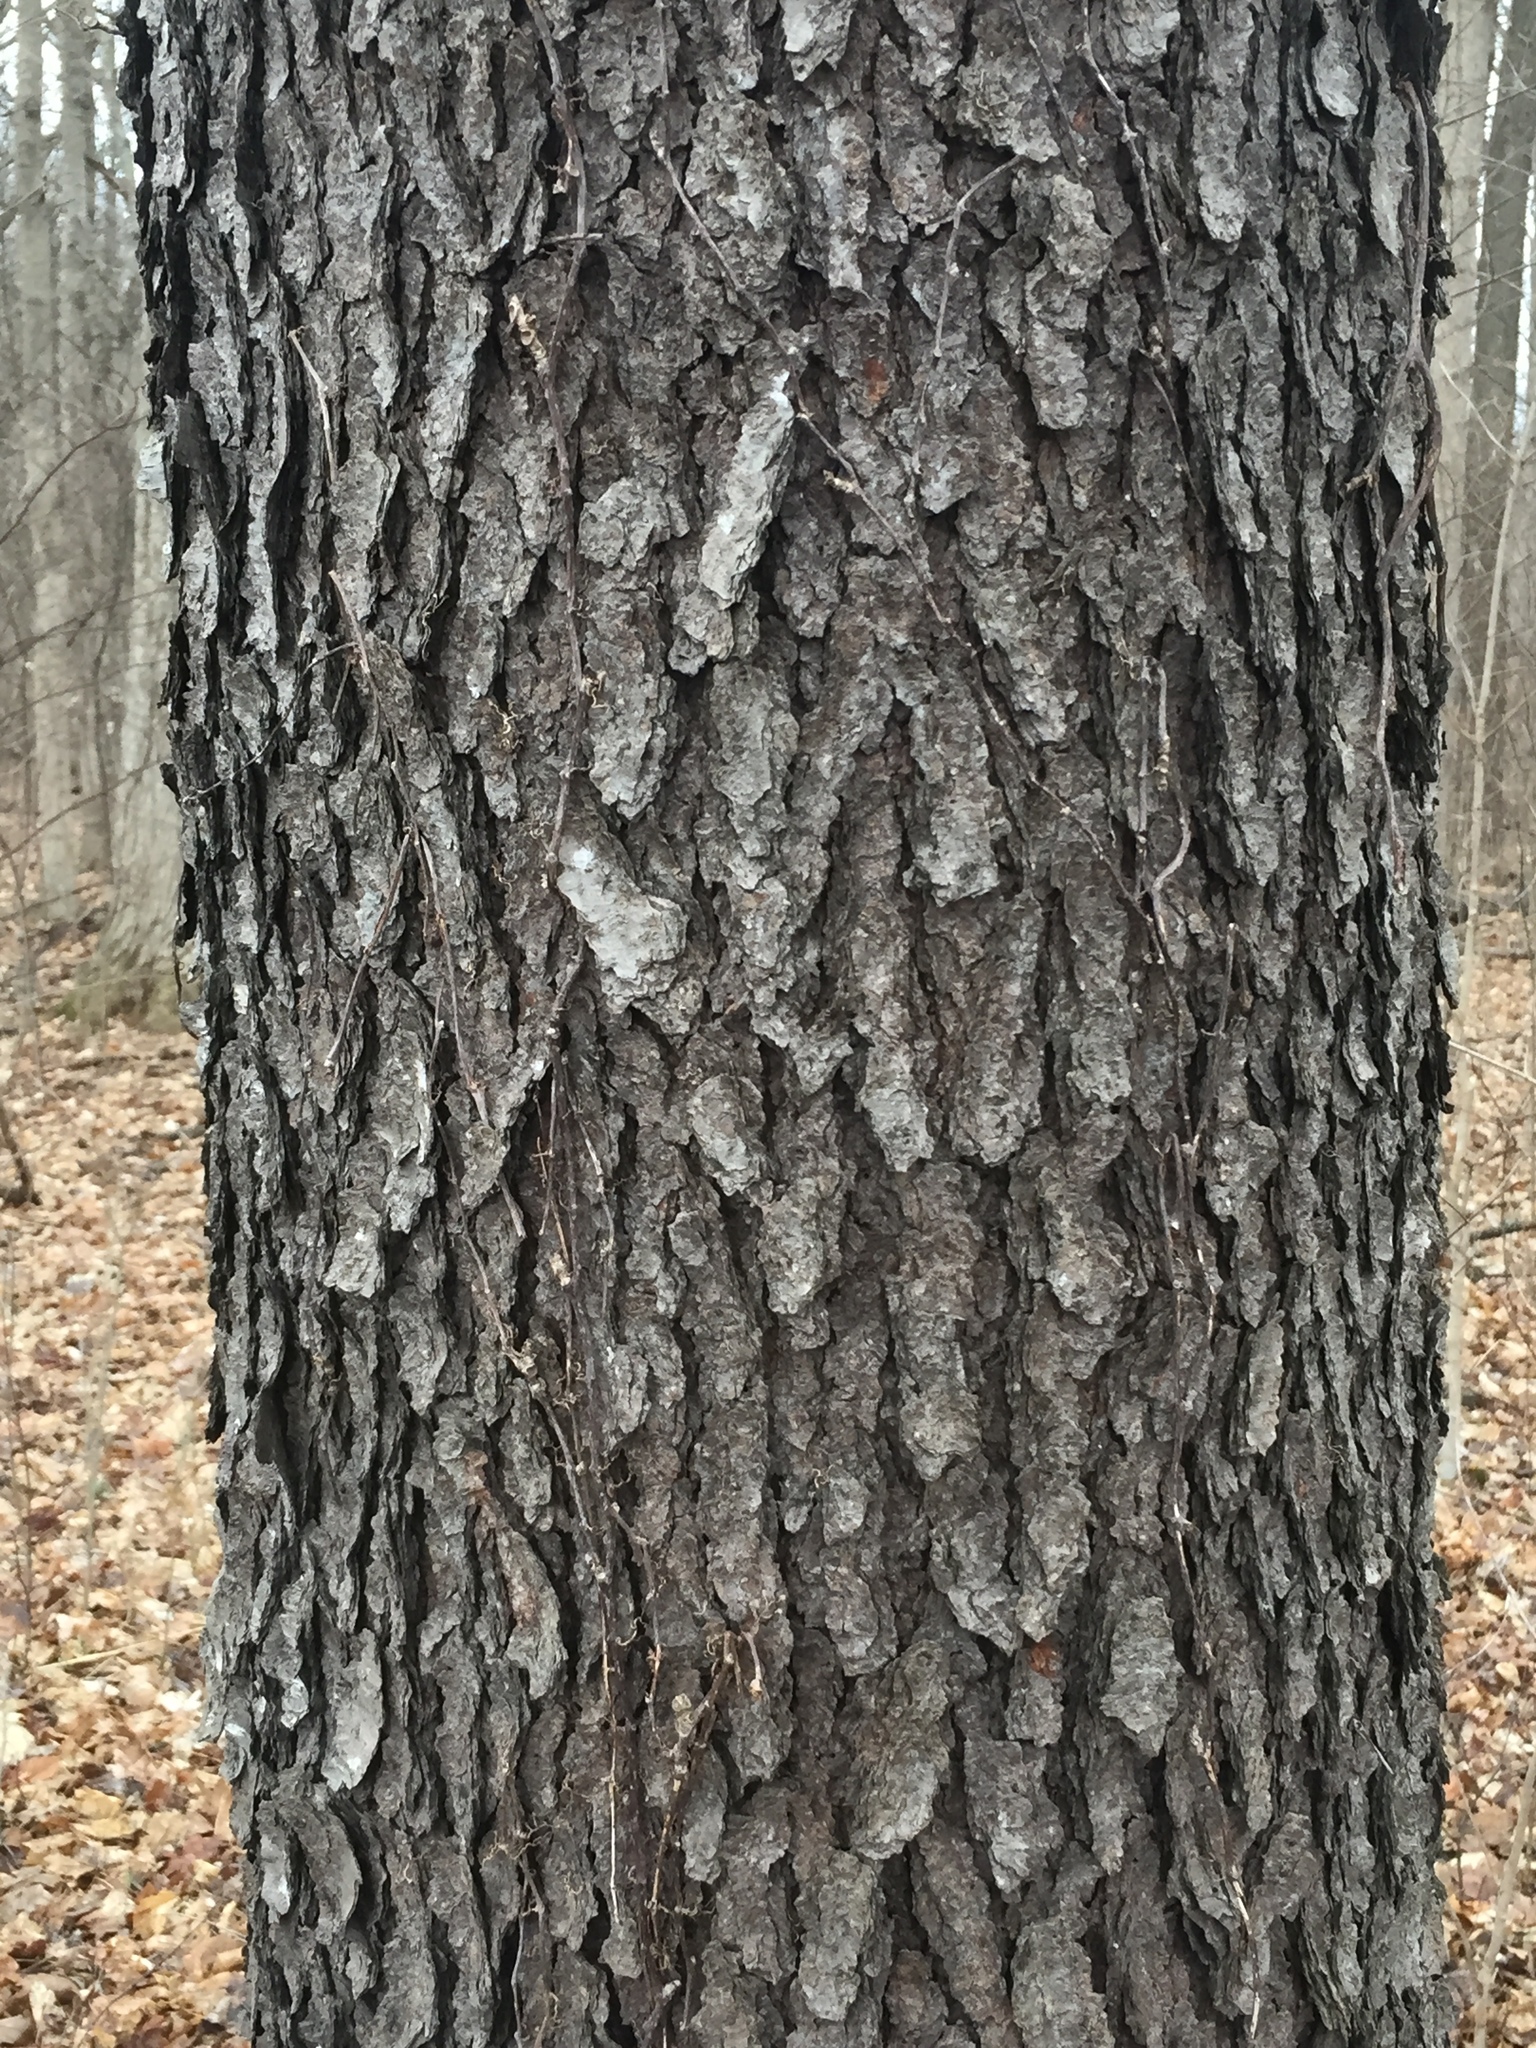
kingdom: Plantae
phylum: Tracheophyta
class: Magnoliopsida
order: Rosales
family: Rosaceae
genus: Prunus
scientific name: Prunus serotina
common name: Black cherry
